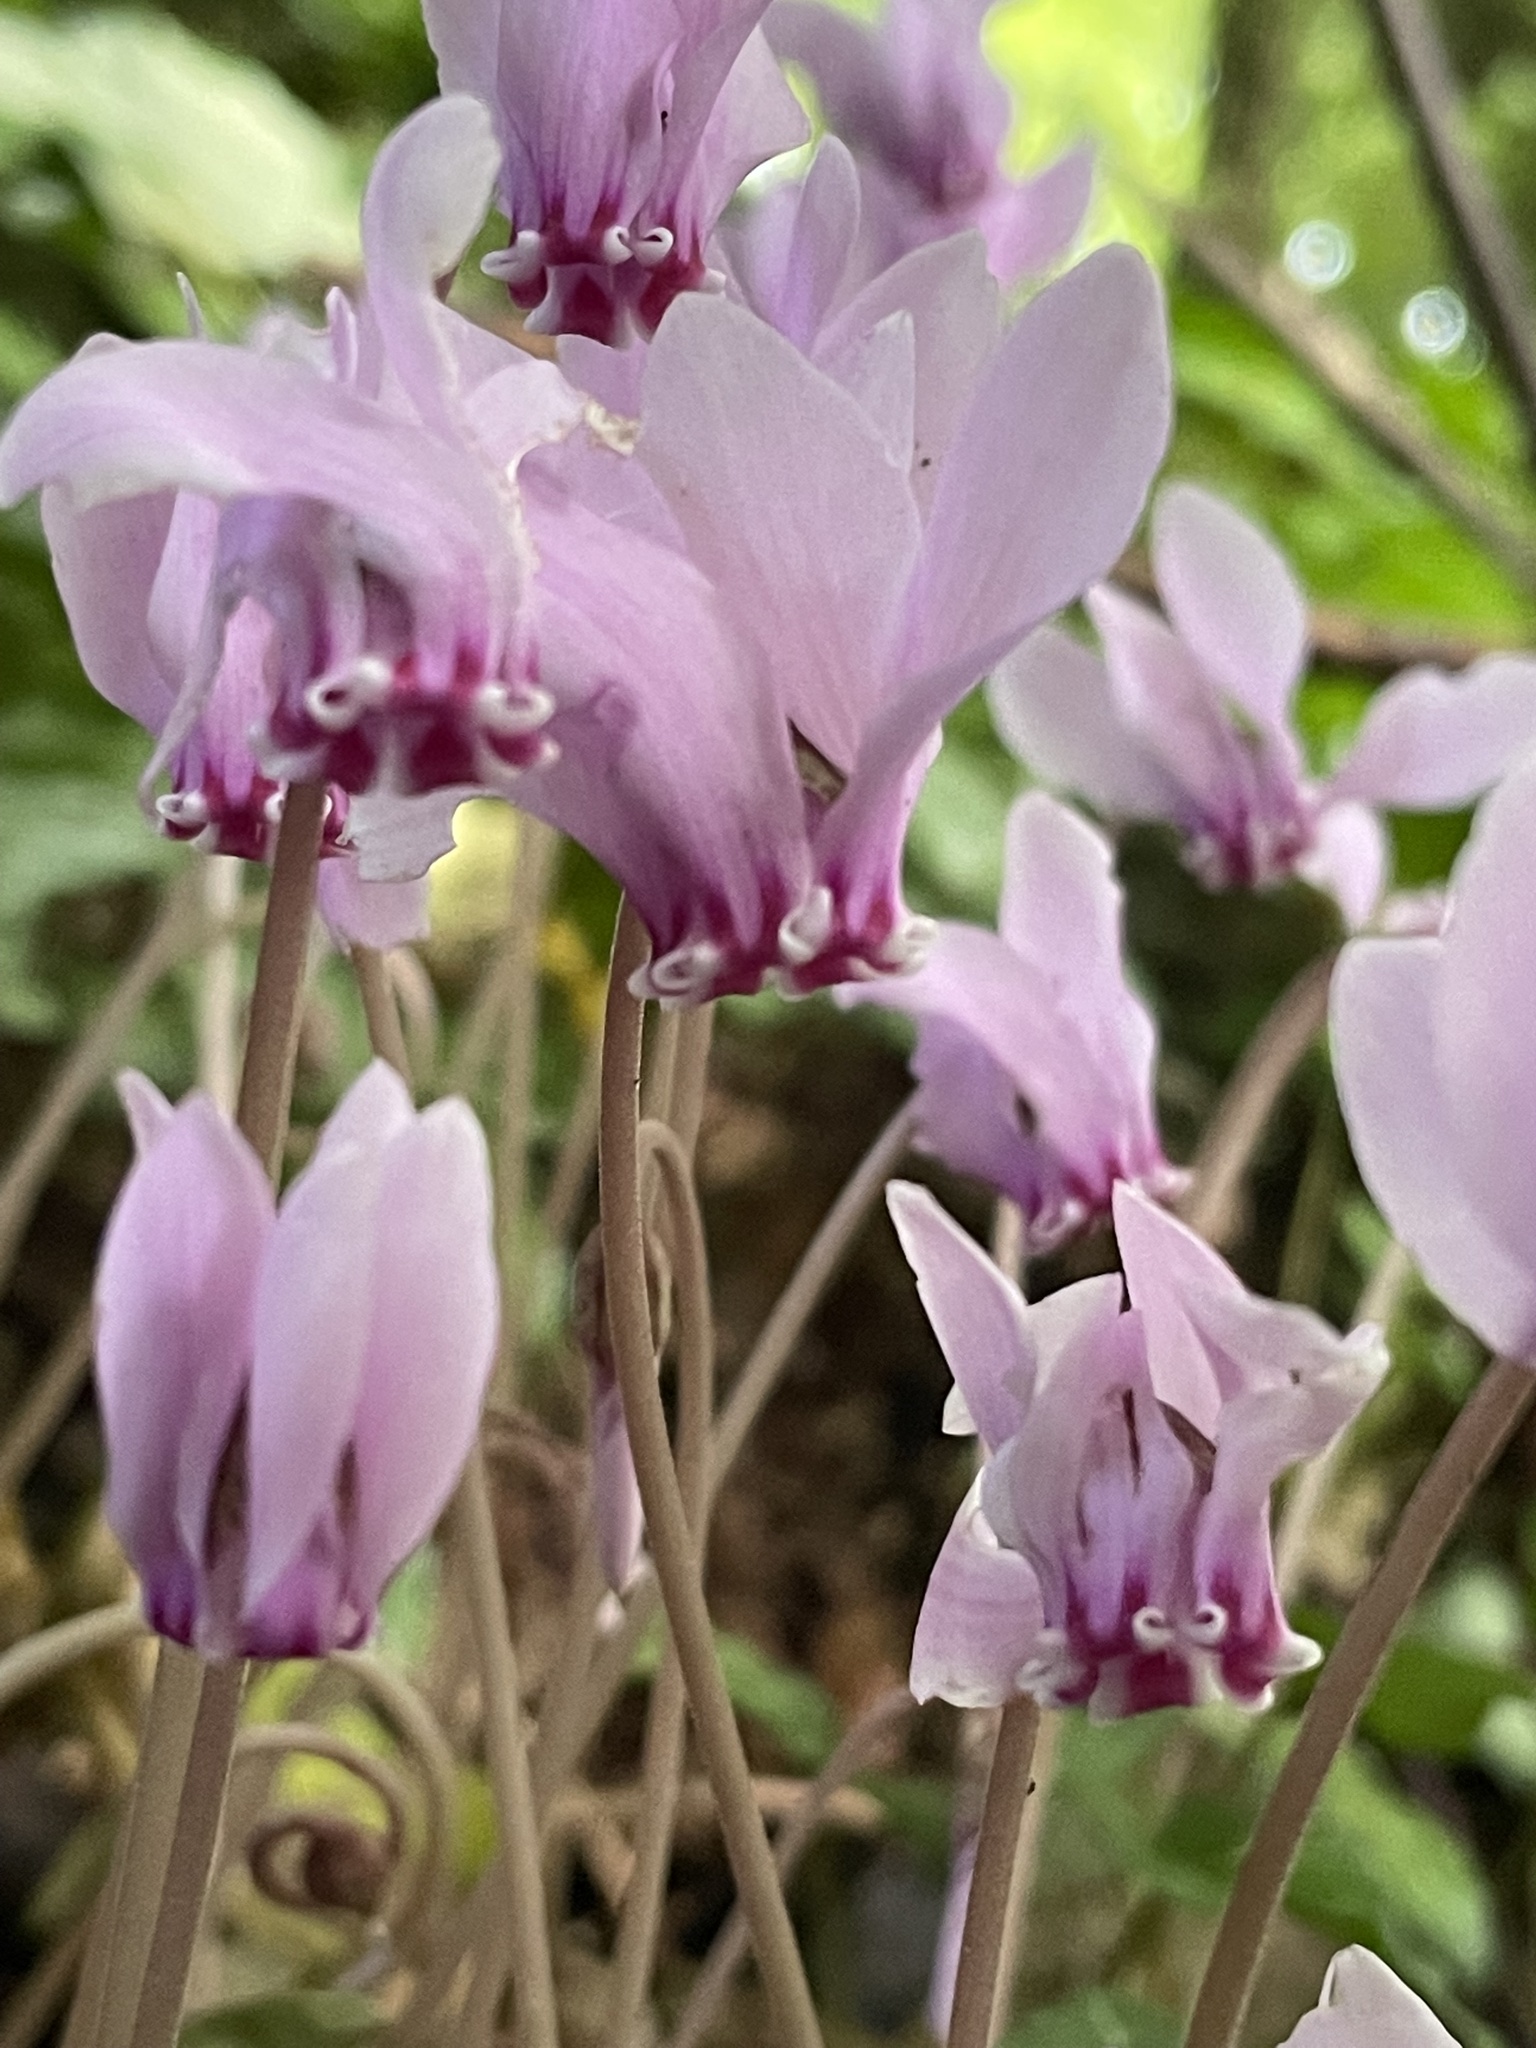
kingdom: Plantae
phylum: Tracheophyta
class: Magnoliopsida
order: Ericales
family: Primulaceae
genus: Cyclamen
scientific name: Cyclamen hederifolium
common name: Sowbread
